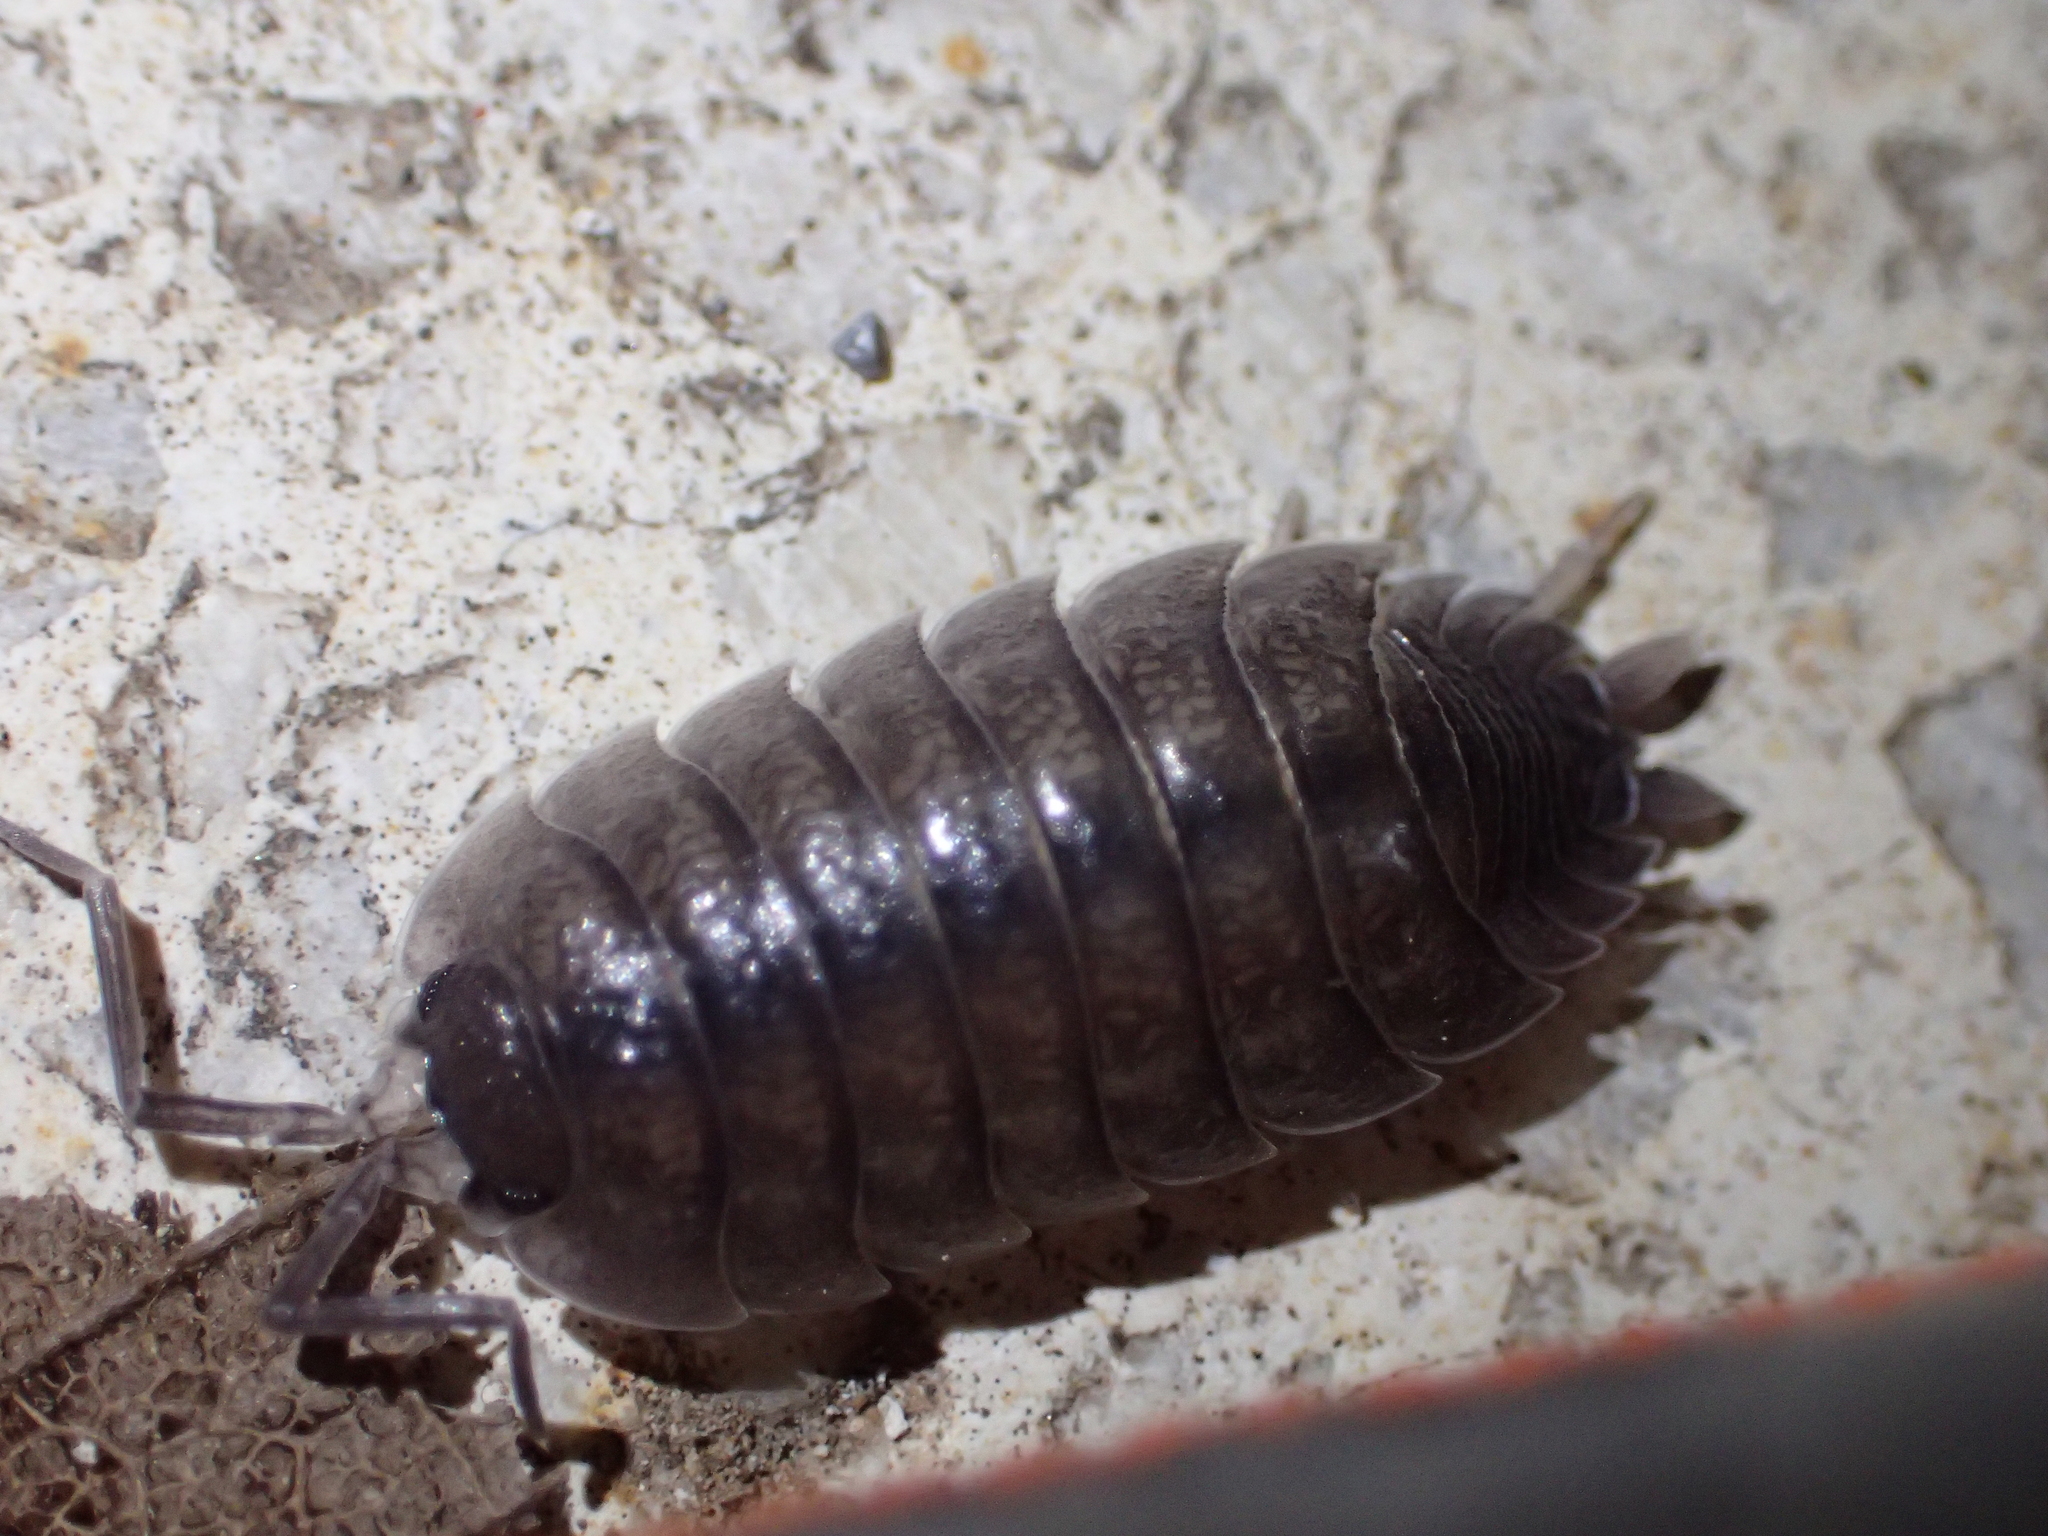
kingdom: Animalia
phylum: Arthropoda
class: Malacostraca
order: Isopoda
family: Porcellionidae
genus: Porcellio
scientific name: Porcellio obsoletus
